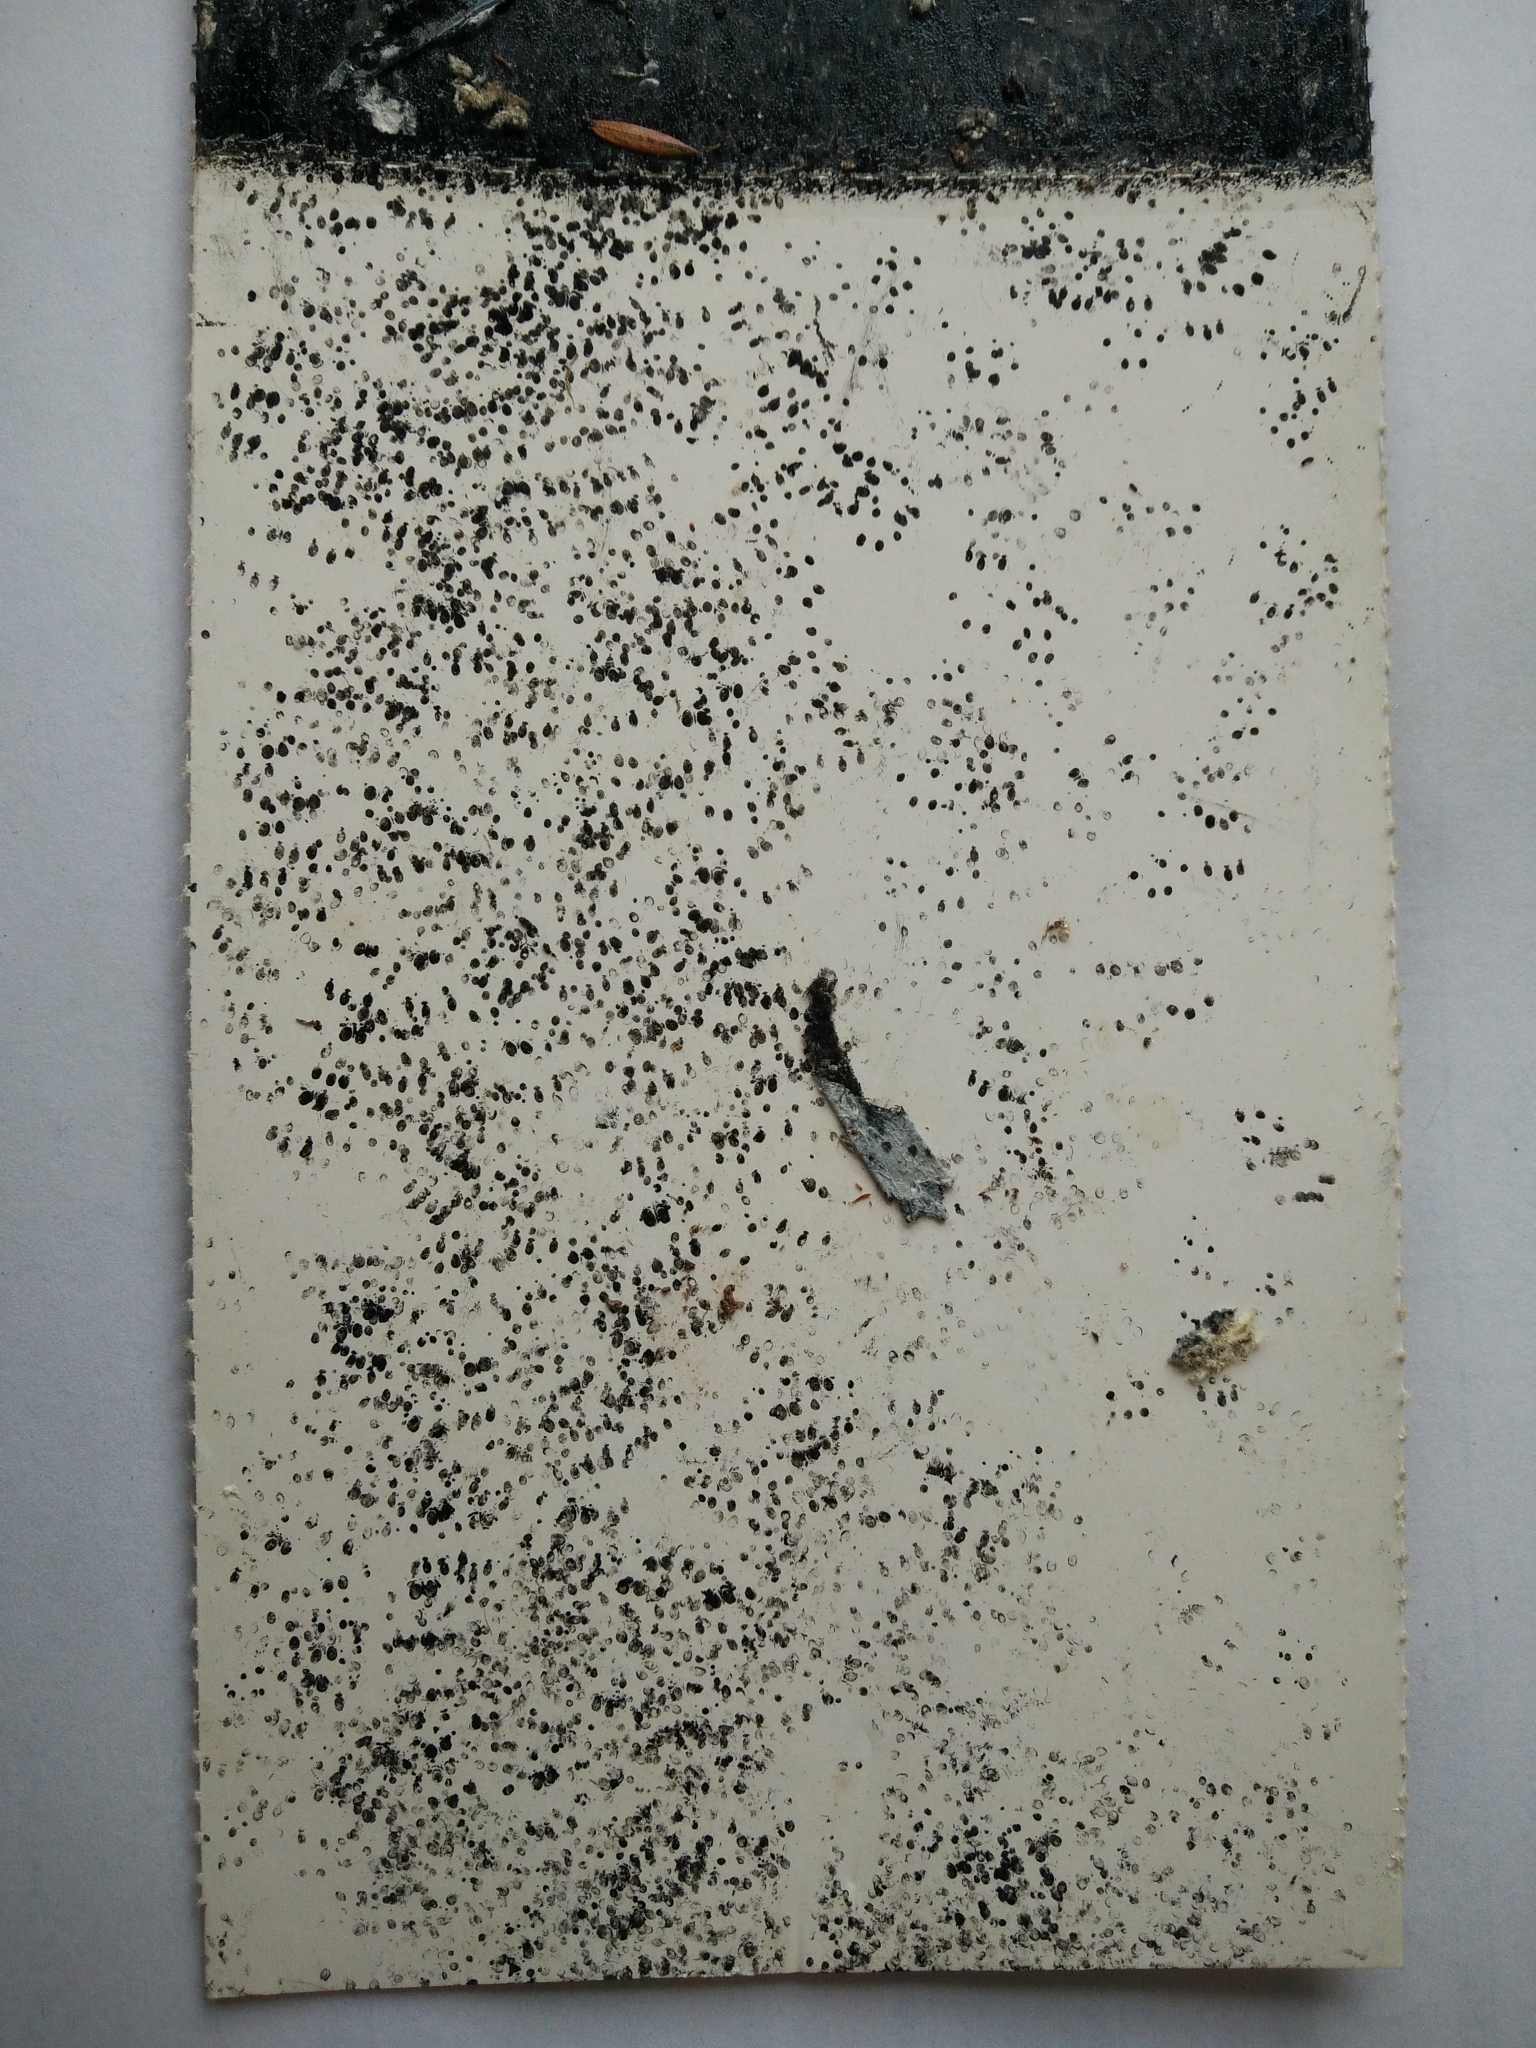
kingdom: Animalia
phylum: Chordata
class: Mammalia
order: Rodentia
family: Muridae
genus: Mus
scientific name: Mus musculus
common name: House mouse
